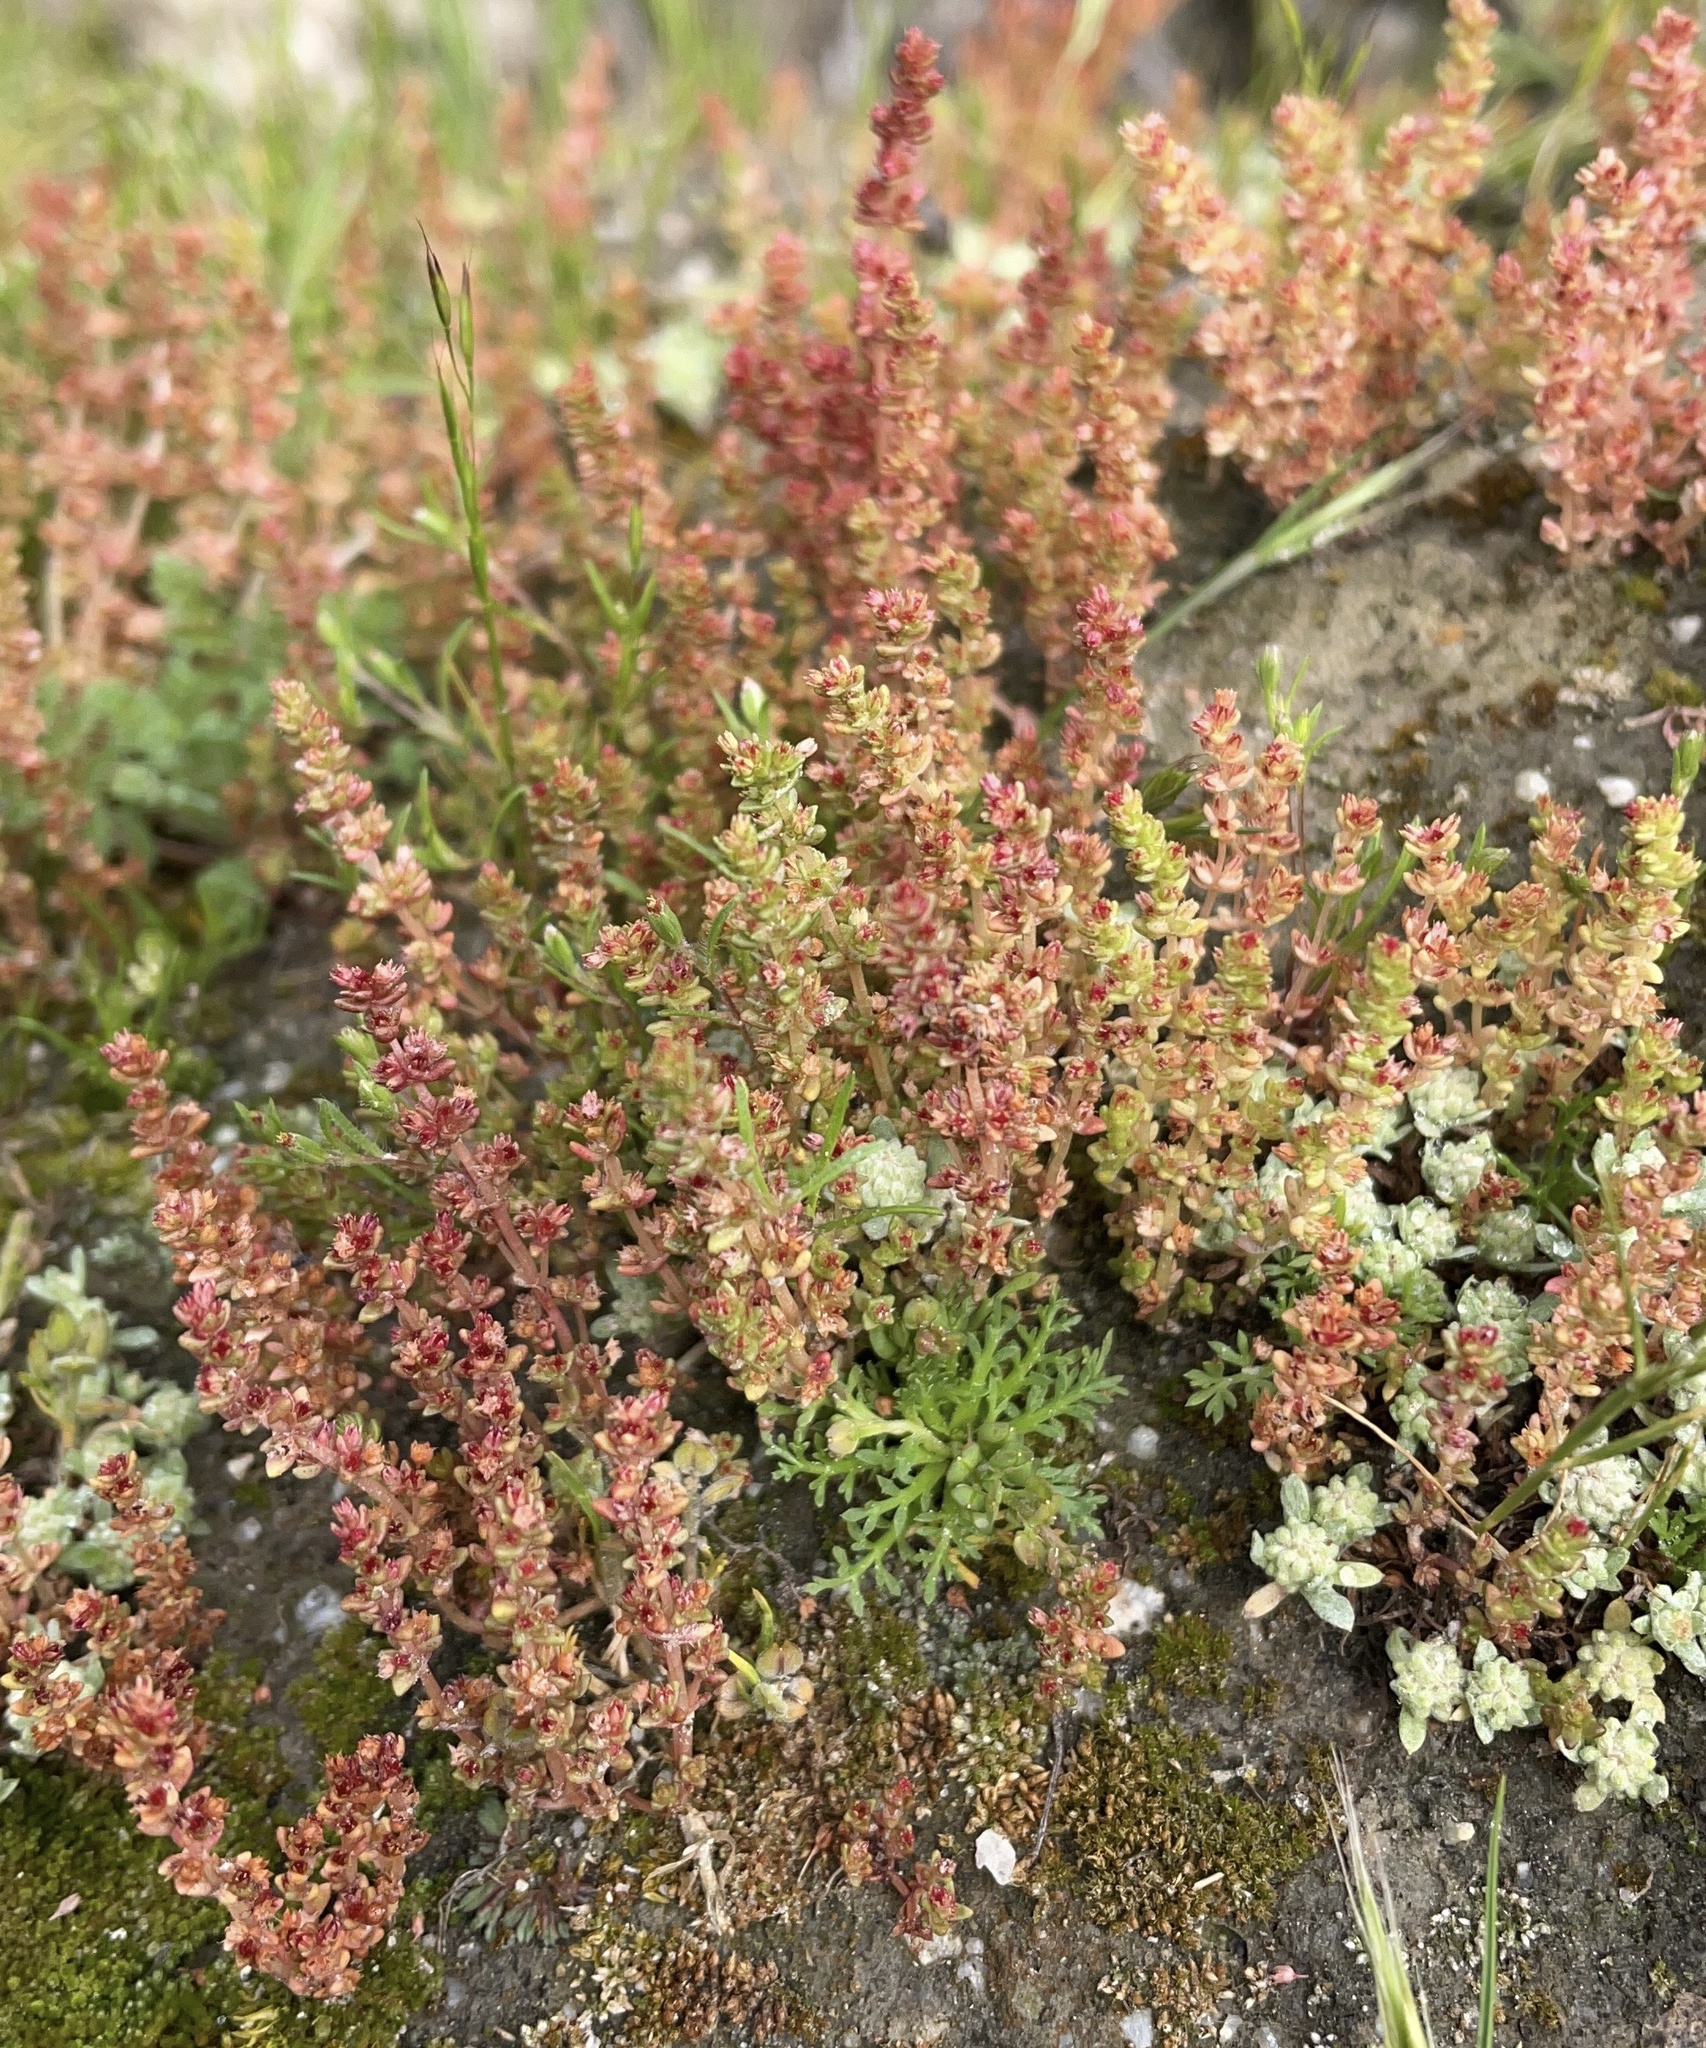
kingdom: Plantae
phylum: Tracheophyta
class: Magnoliopsida
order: Saxifragales
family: Crassulaceae
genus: Crassula
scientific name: Crassula connata
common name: Erect pygmyweed
